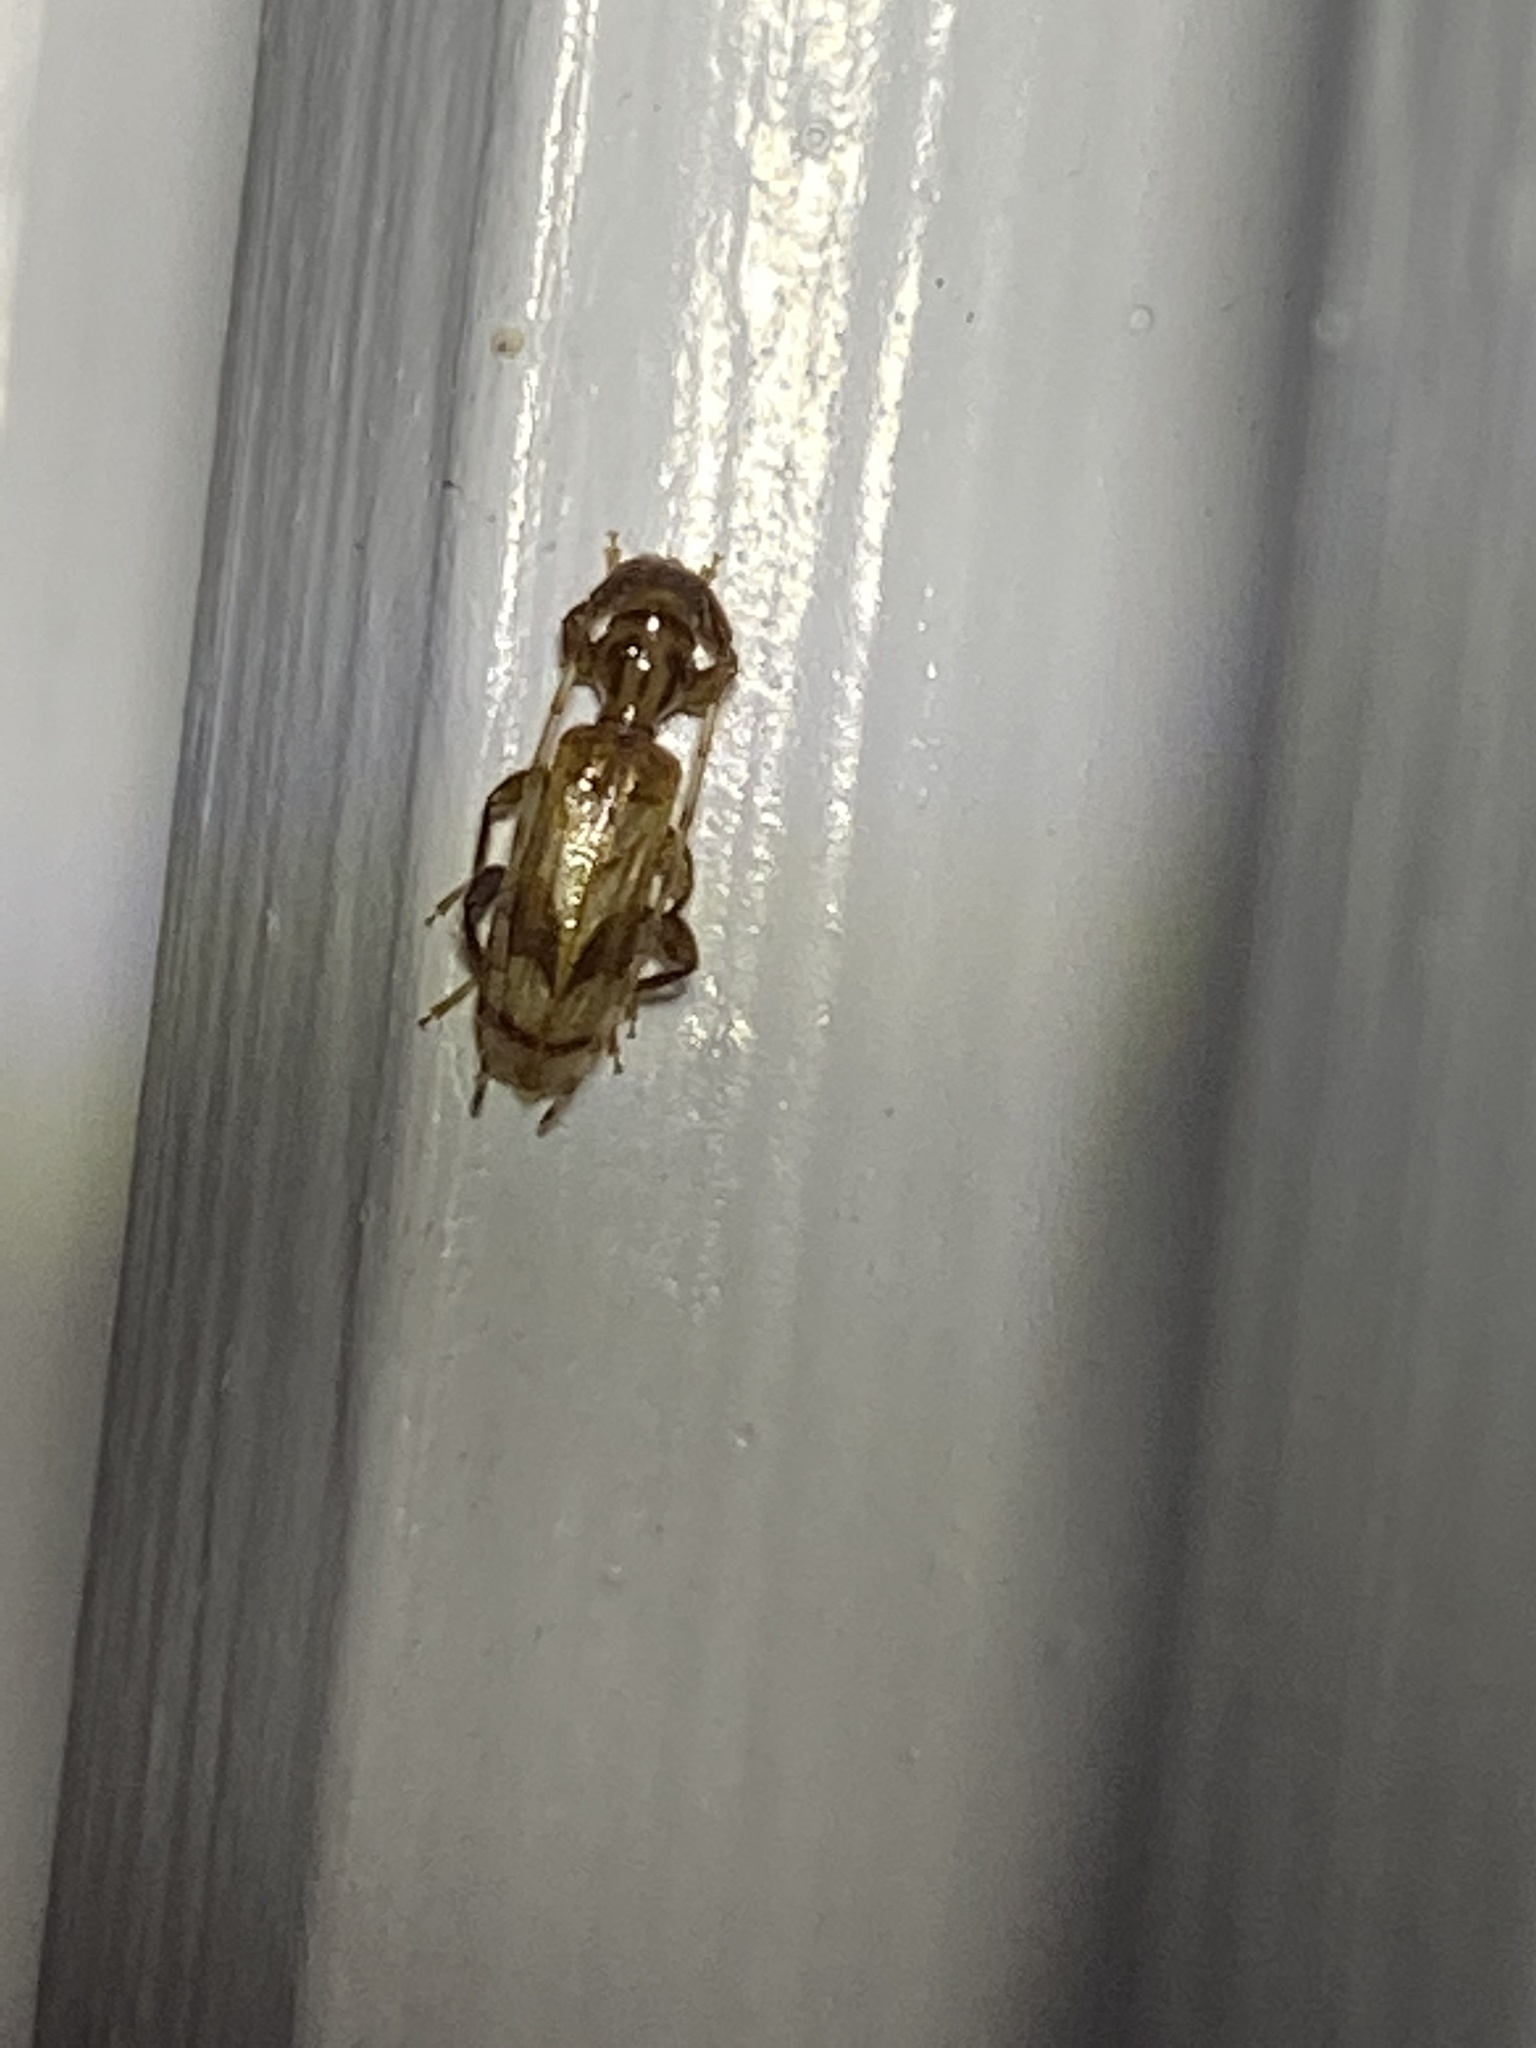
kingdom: Animalia
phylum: Arthropoda
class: Insecta
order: Coleoptera
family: Cerambycidae
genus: Obrium
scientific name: Obrium maculatum
